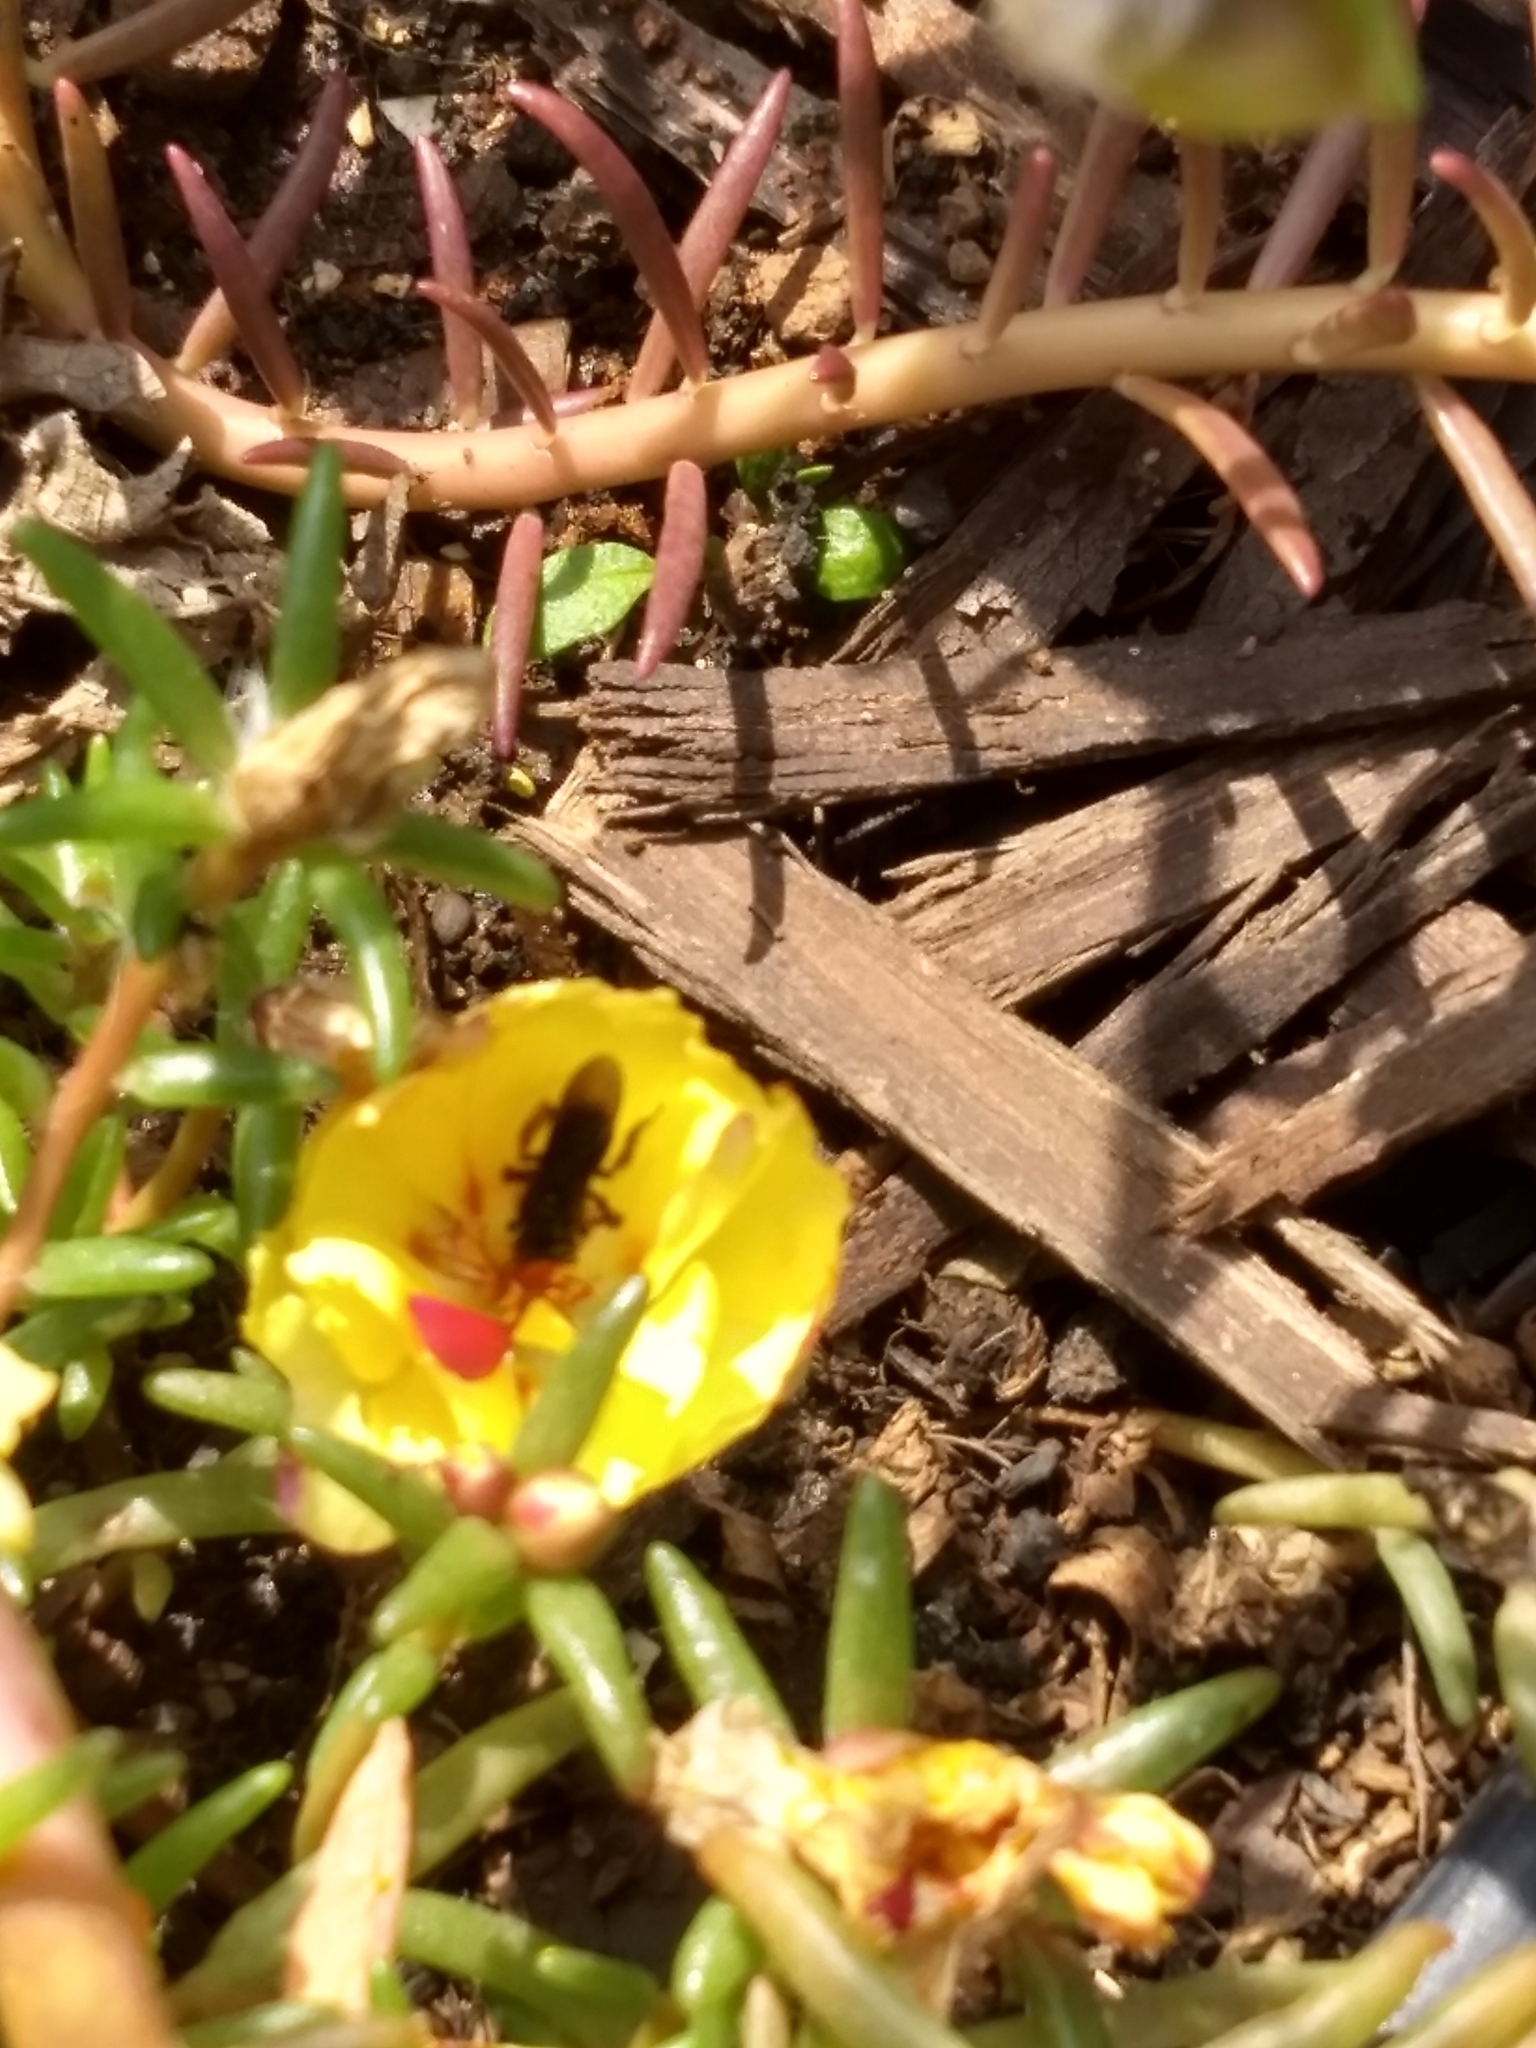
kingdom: Animalia
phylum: Arthropoda
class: Insecta
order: Hymenoptera
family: Apidae
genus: Trigona
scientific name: Trigona spinipes
